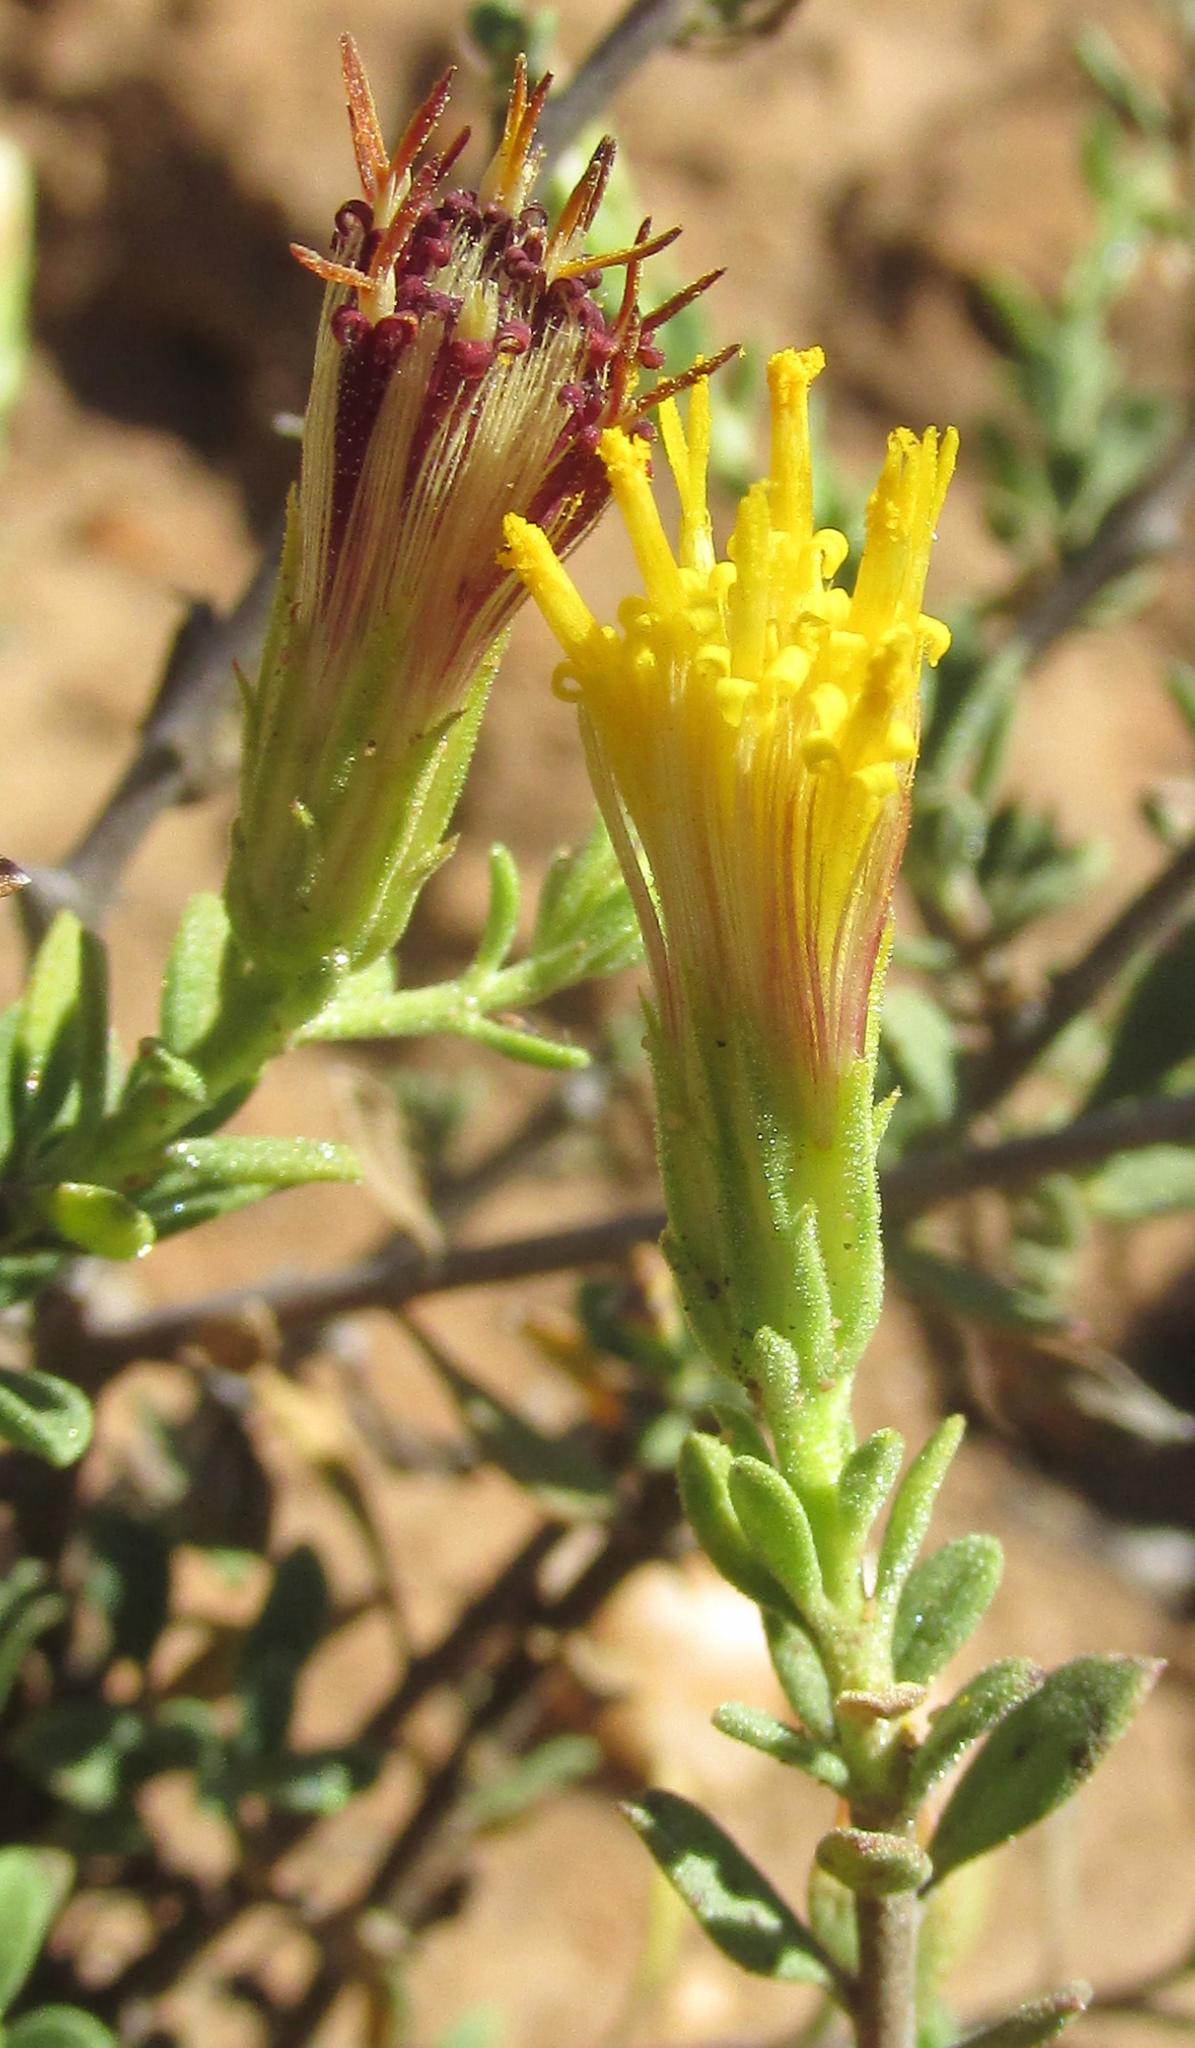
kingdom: Plantae
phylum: Tracheophyta
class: Magnoliopsida
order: Asterales
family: Asteraceae
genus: Pegolettia
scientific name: Pegolettia retrofracta
